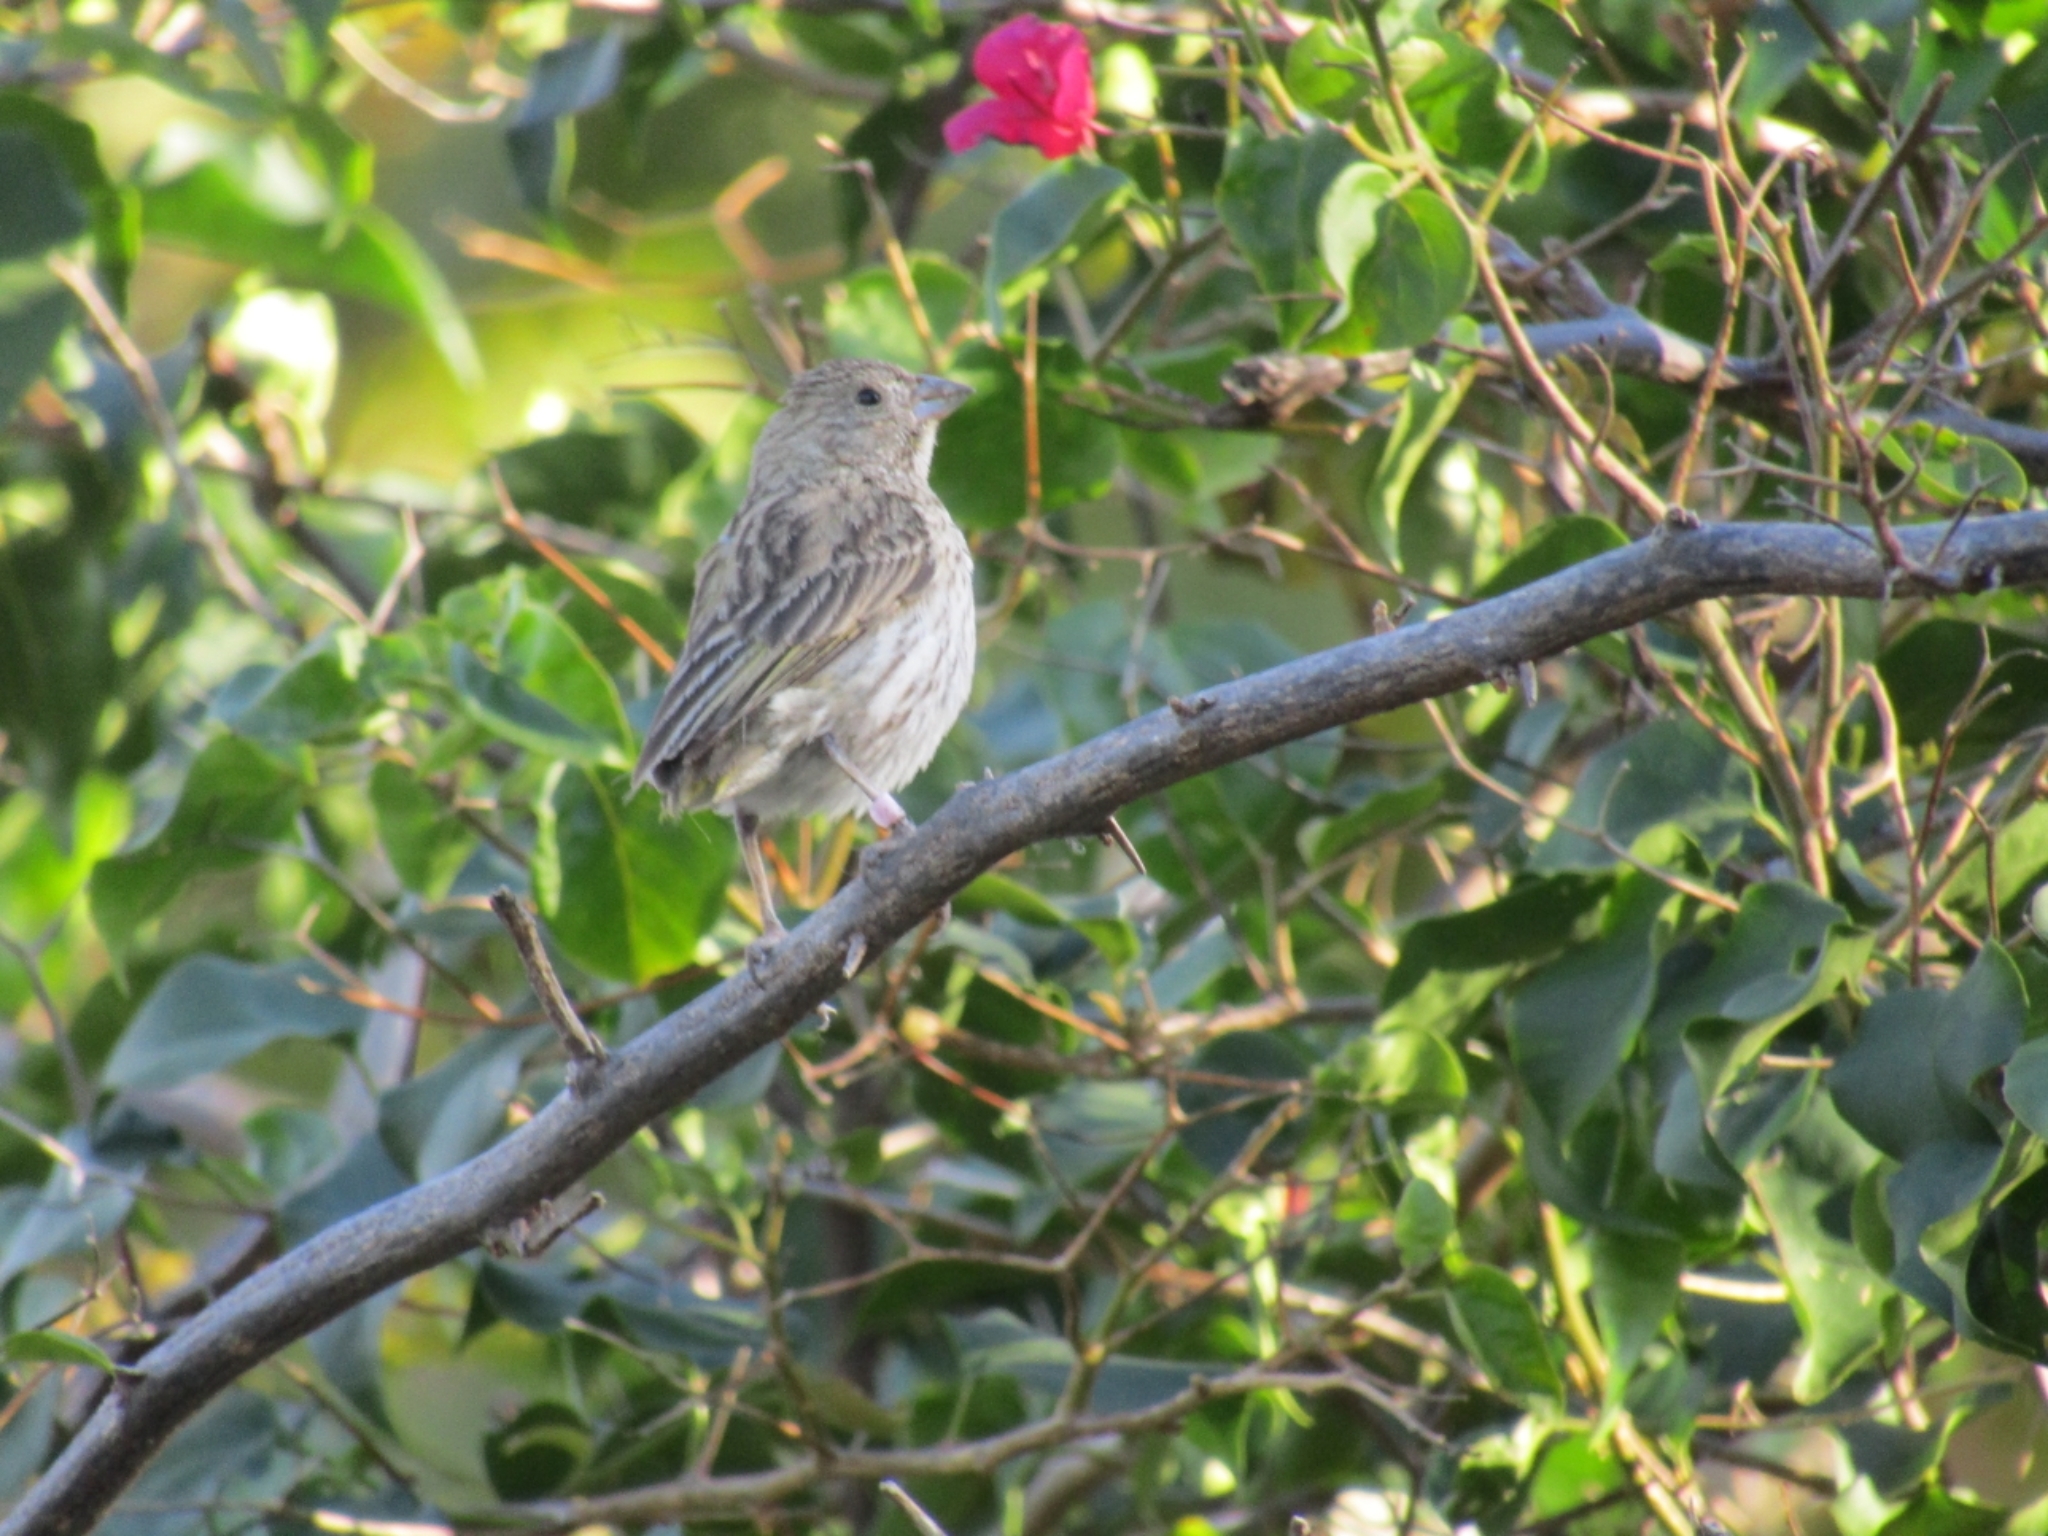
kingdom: Animalia
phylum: Chordata
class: Aves
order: Passeriformes
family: Thraupidae
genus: Sicalis
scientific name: Sicalis flaveola
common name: Saffron finch
